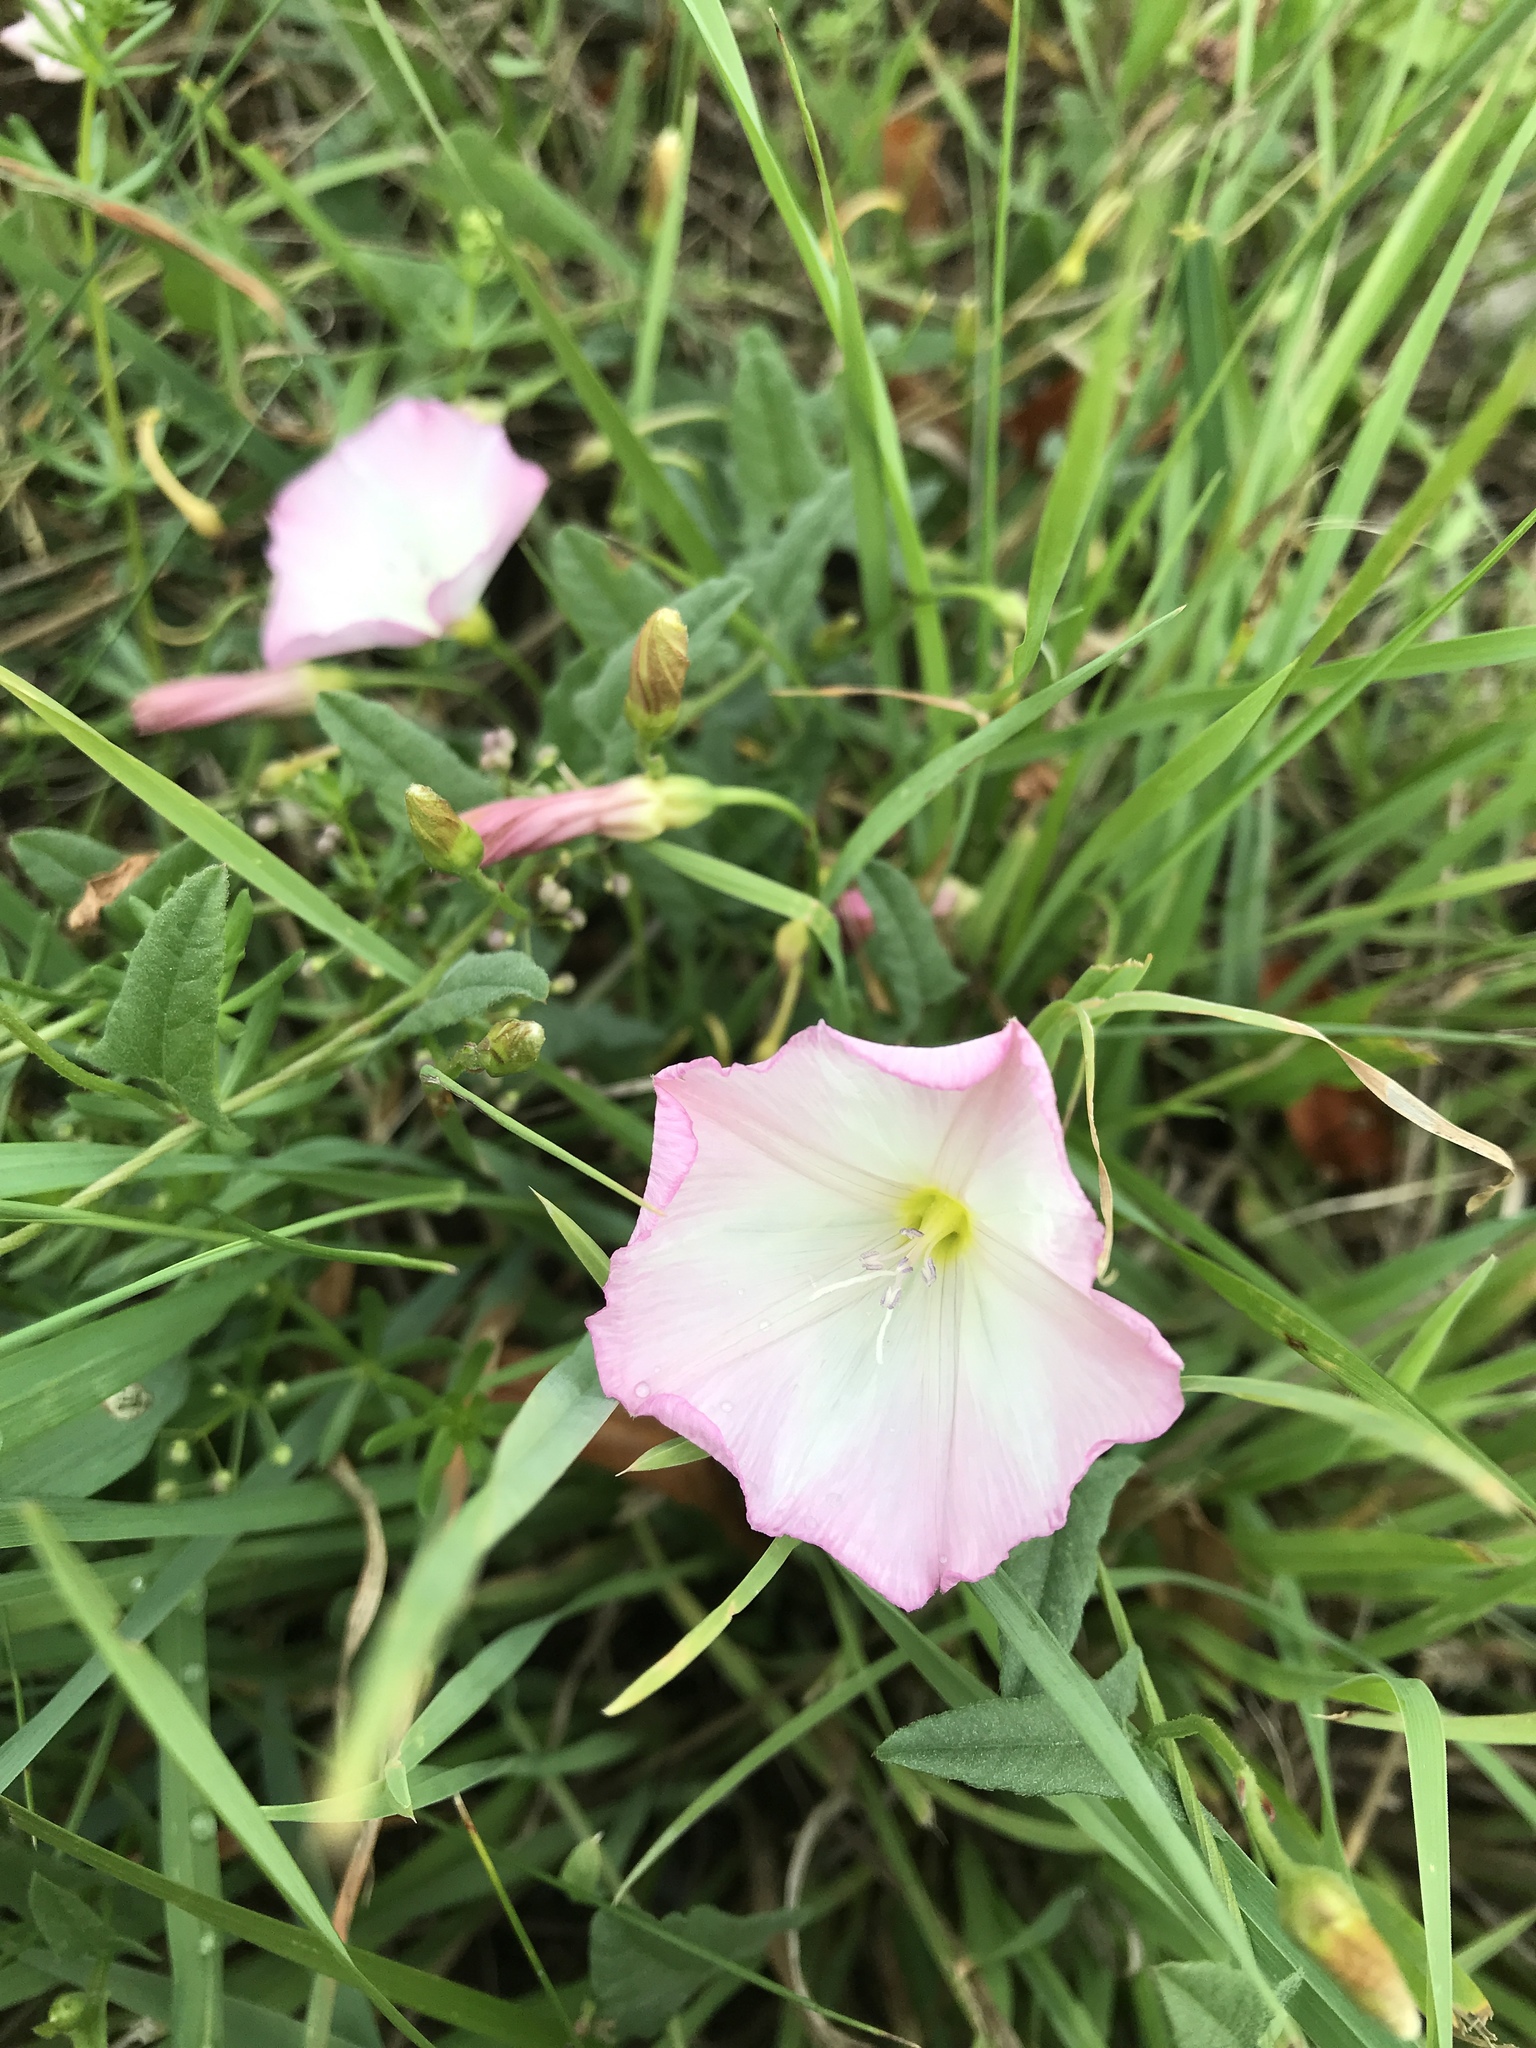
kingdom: Plantae
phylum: Tracheophyta
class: Magnoliopsida
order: Solanales
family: Convolvulaceae
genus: Convolvulus
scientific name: Convolvulus arvensis
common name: Field bindweed
